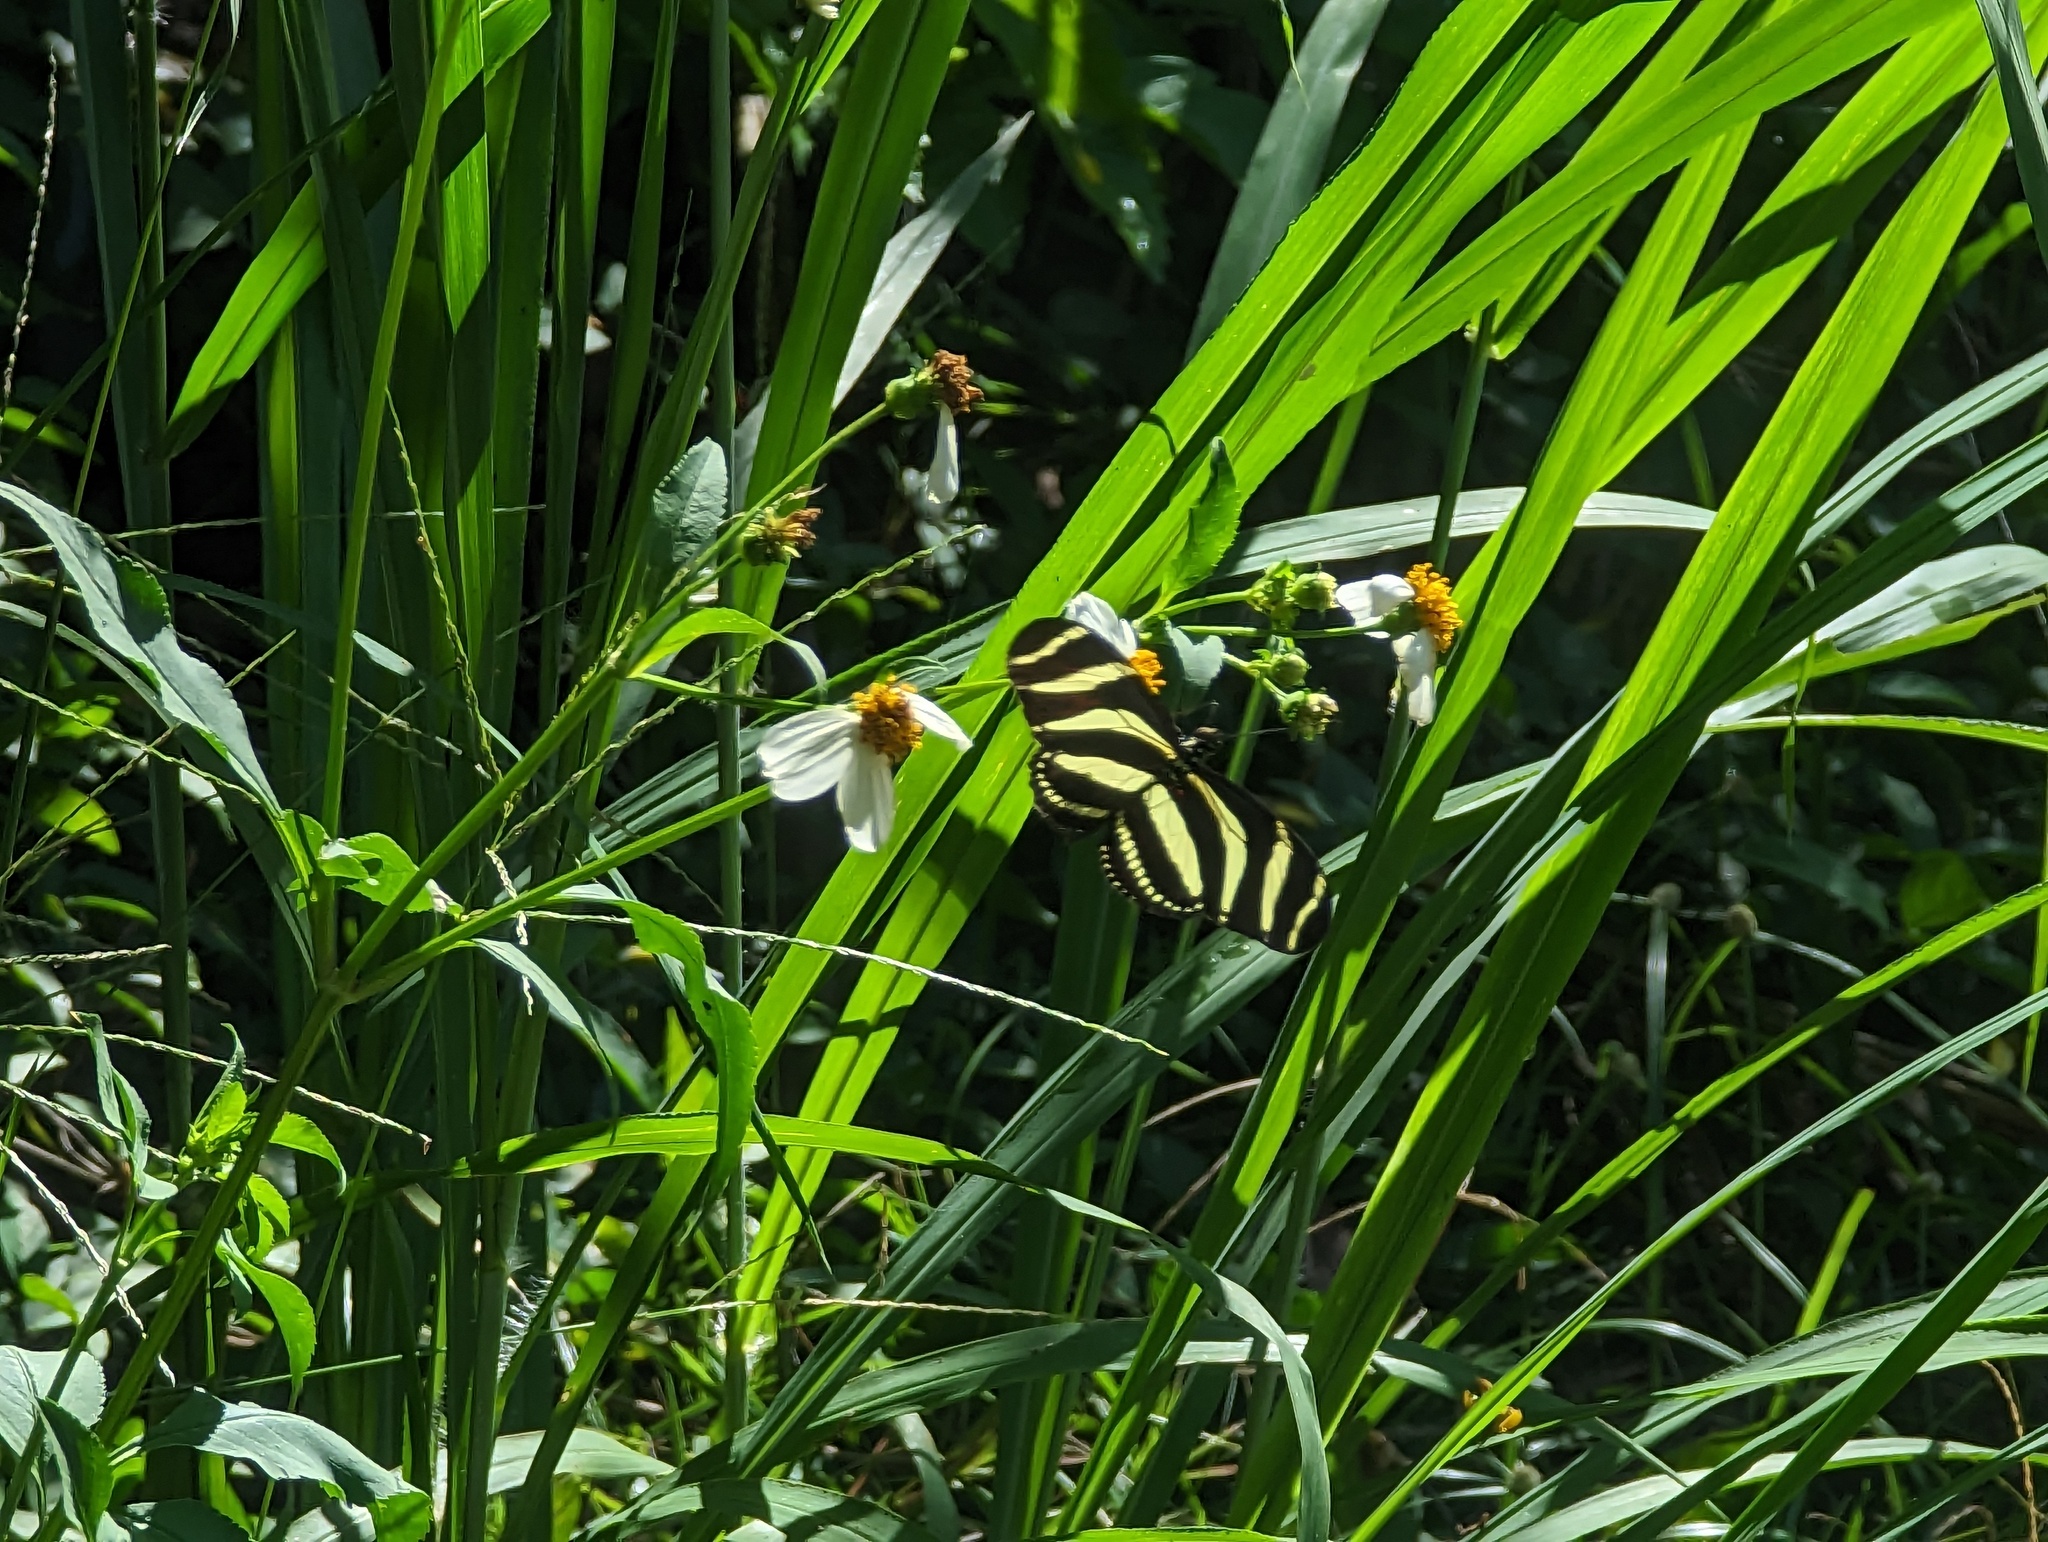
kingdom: Animalia
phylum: Arthropoda
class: Insecta
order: Lepidoptera
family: Nymphalidae
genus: Heliconius
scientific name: Heliconius charithonia
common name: Zebra long wing
